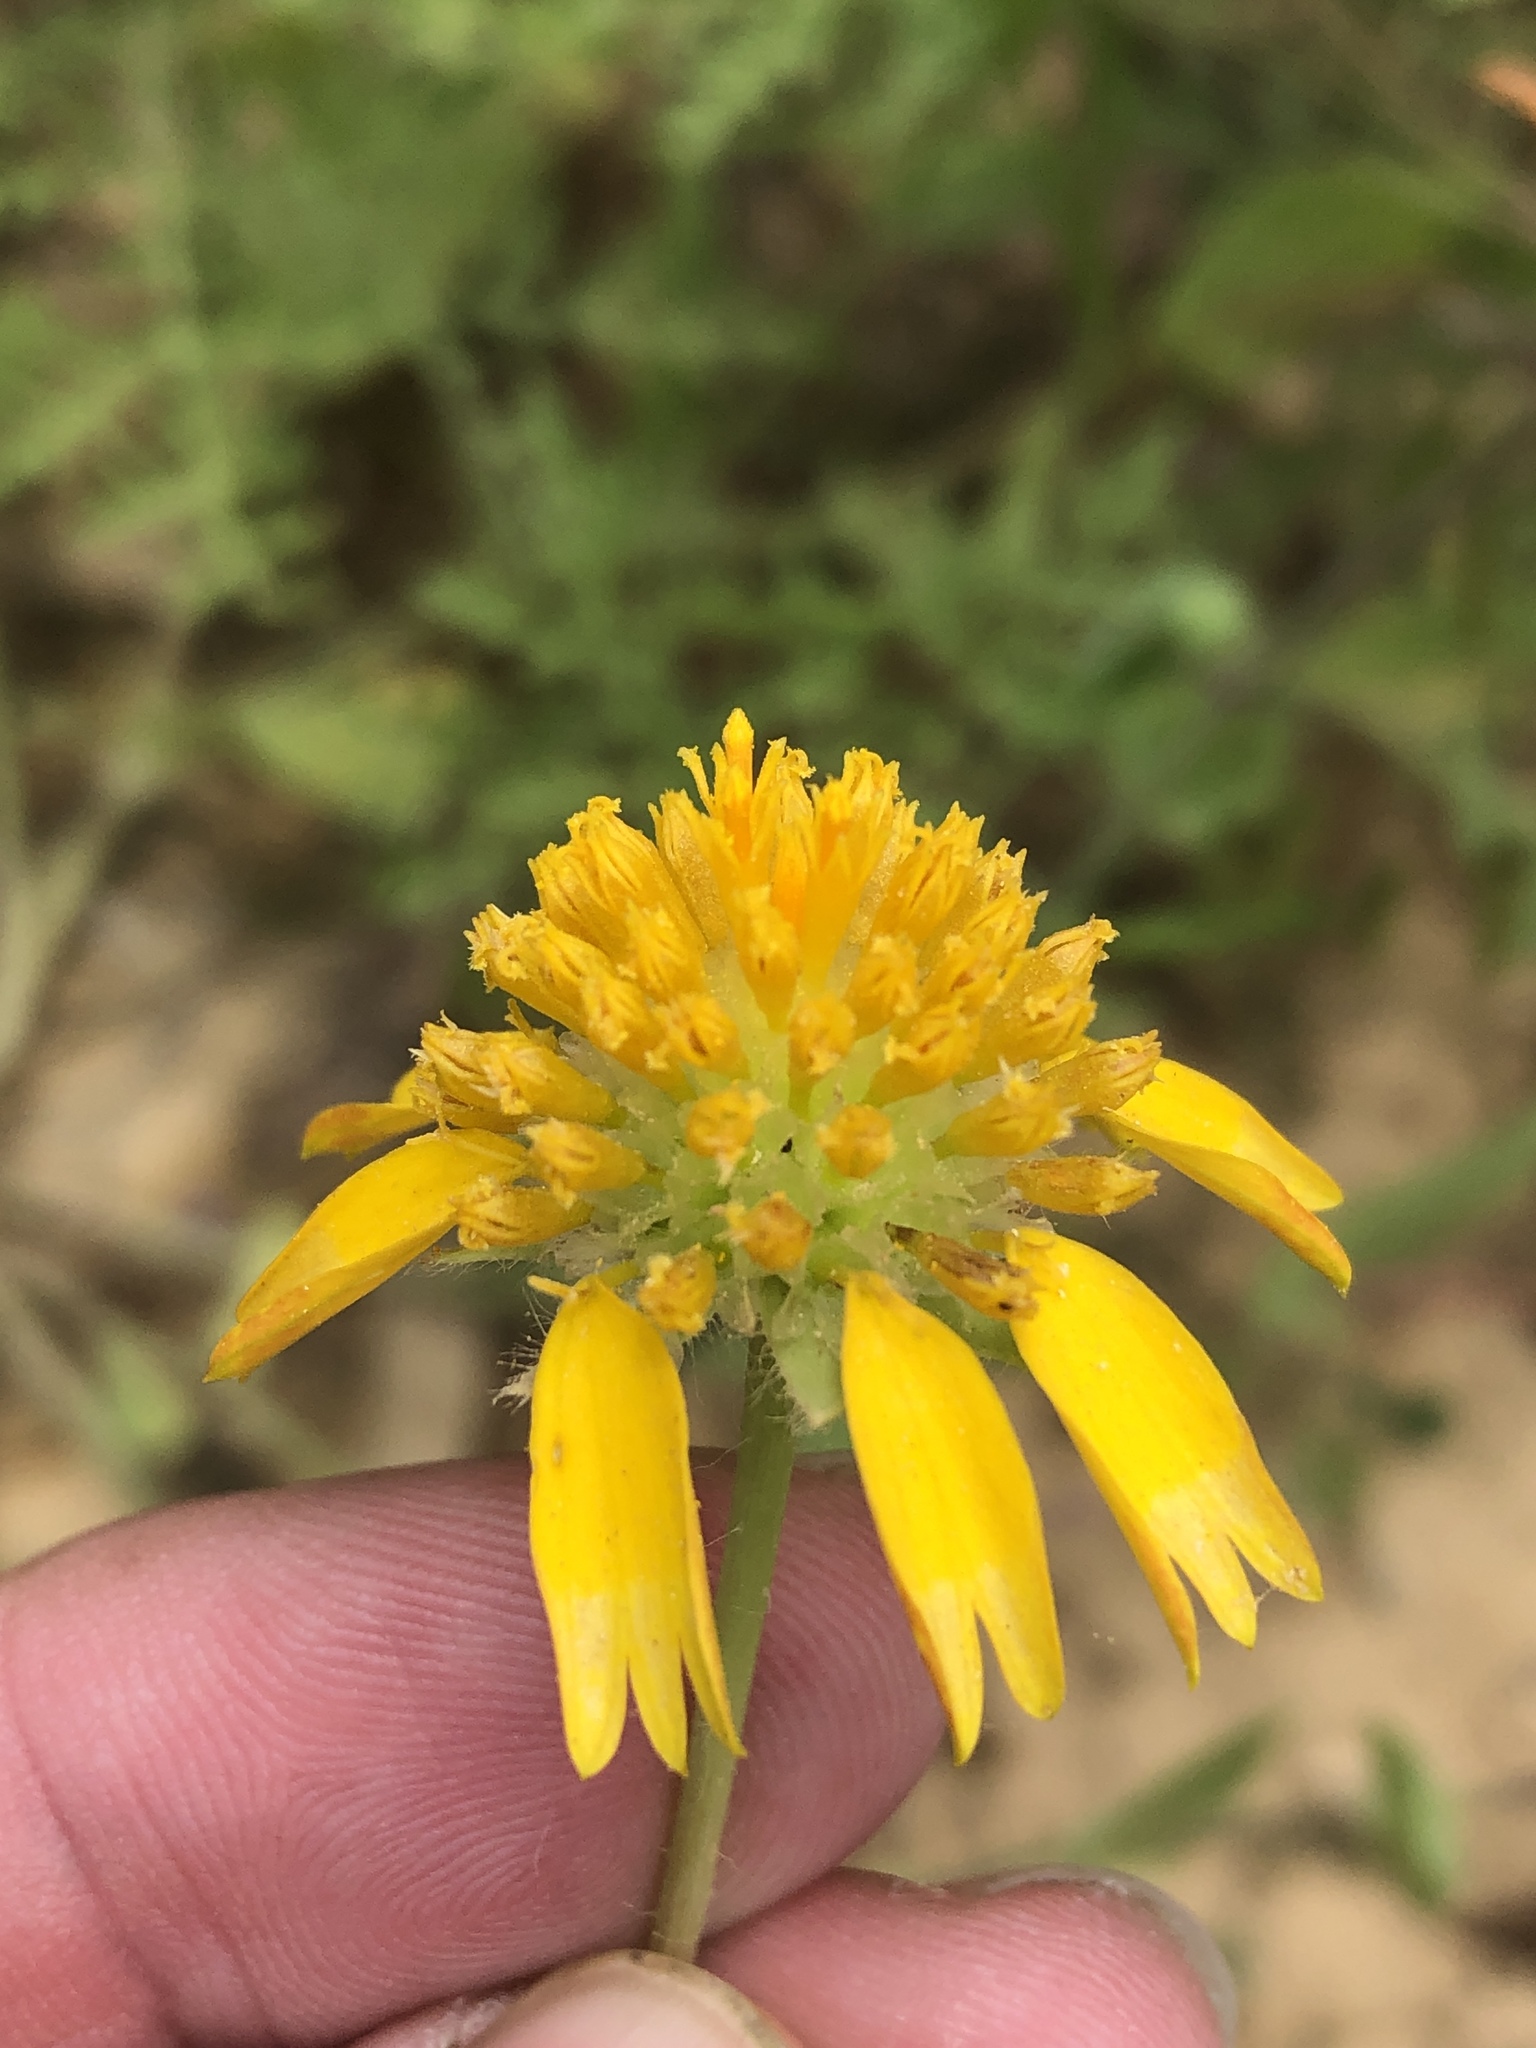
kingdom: Plantae
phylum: Tracheophyta
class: Magnoliopsida
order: Asterales
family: Asteraceae
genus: Amblyolepis
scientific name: Amblyolepis setigera
